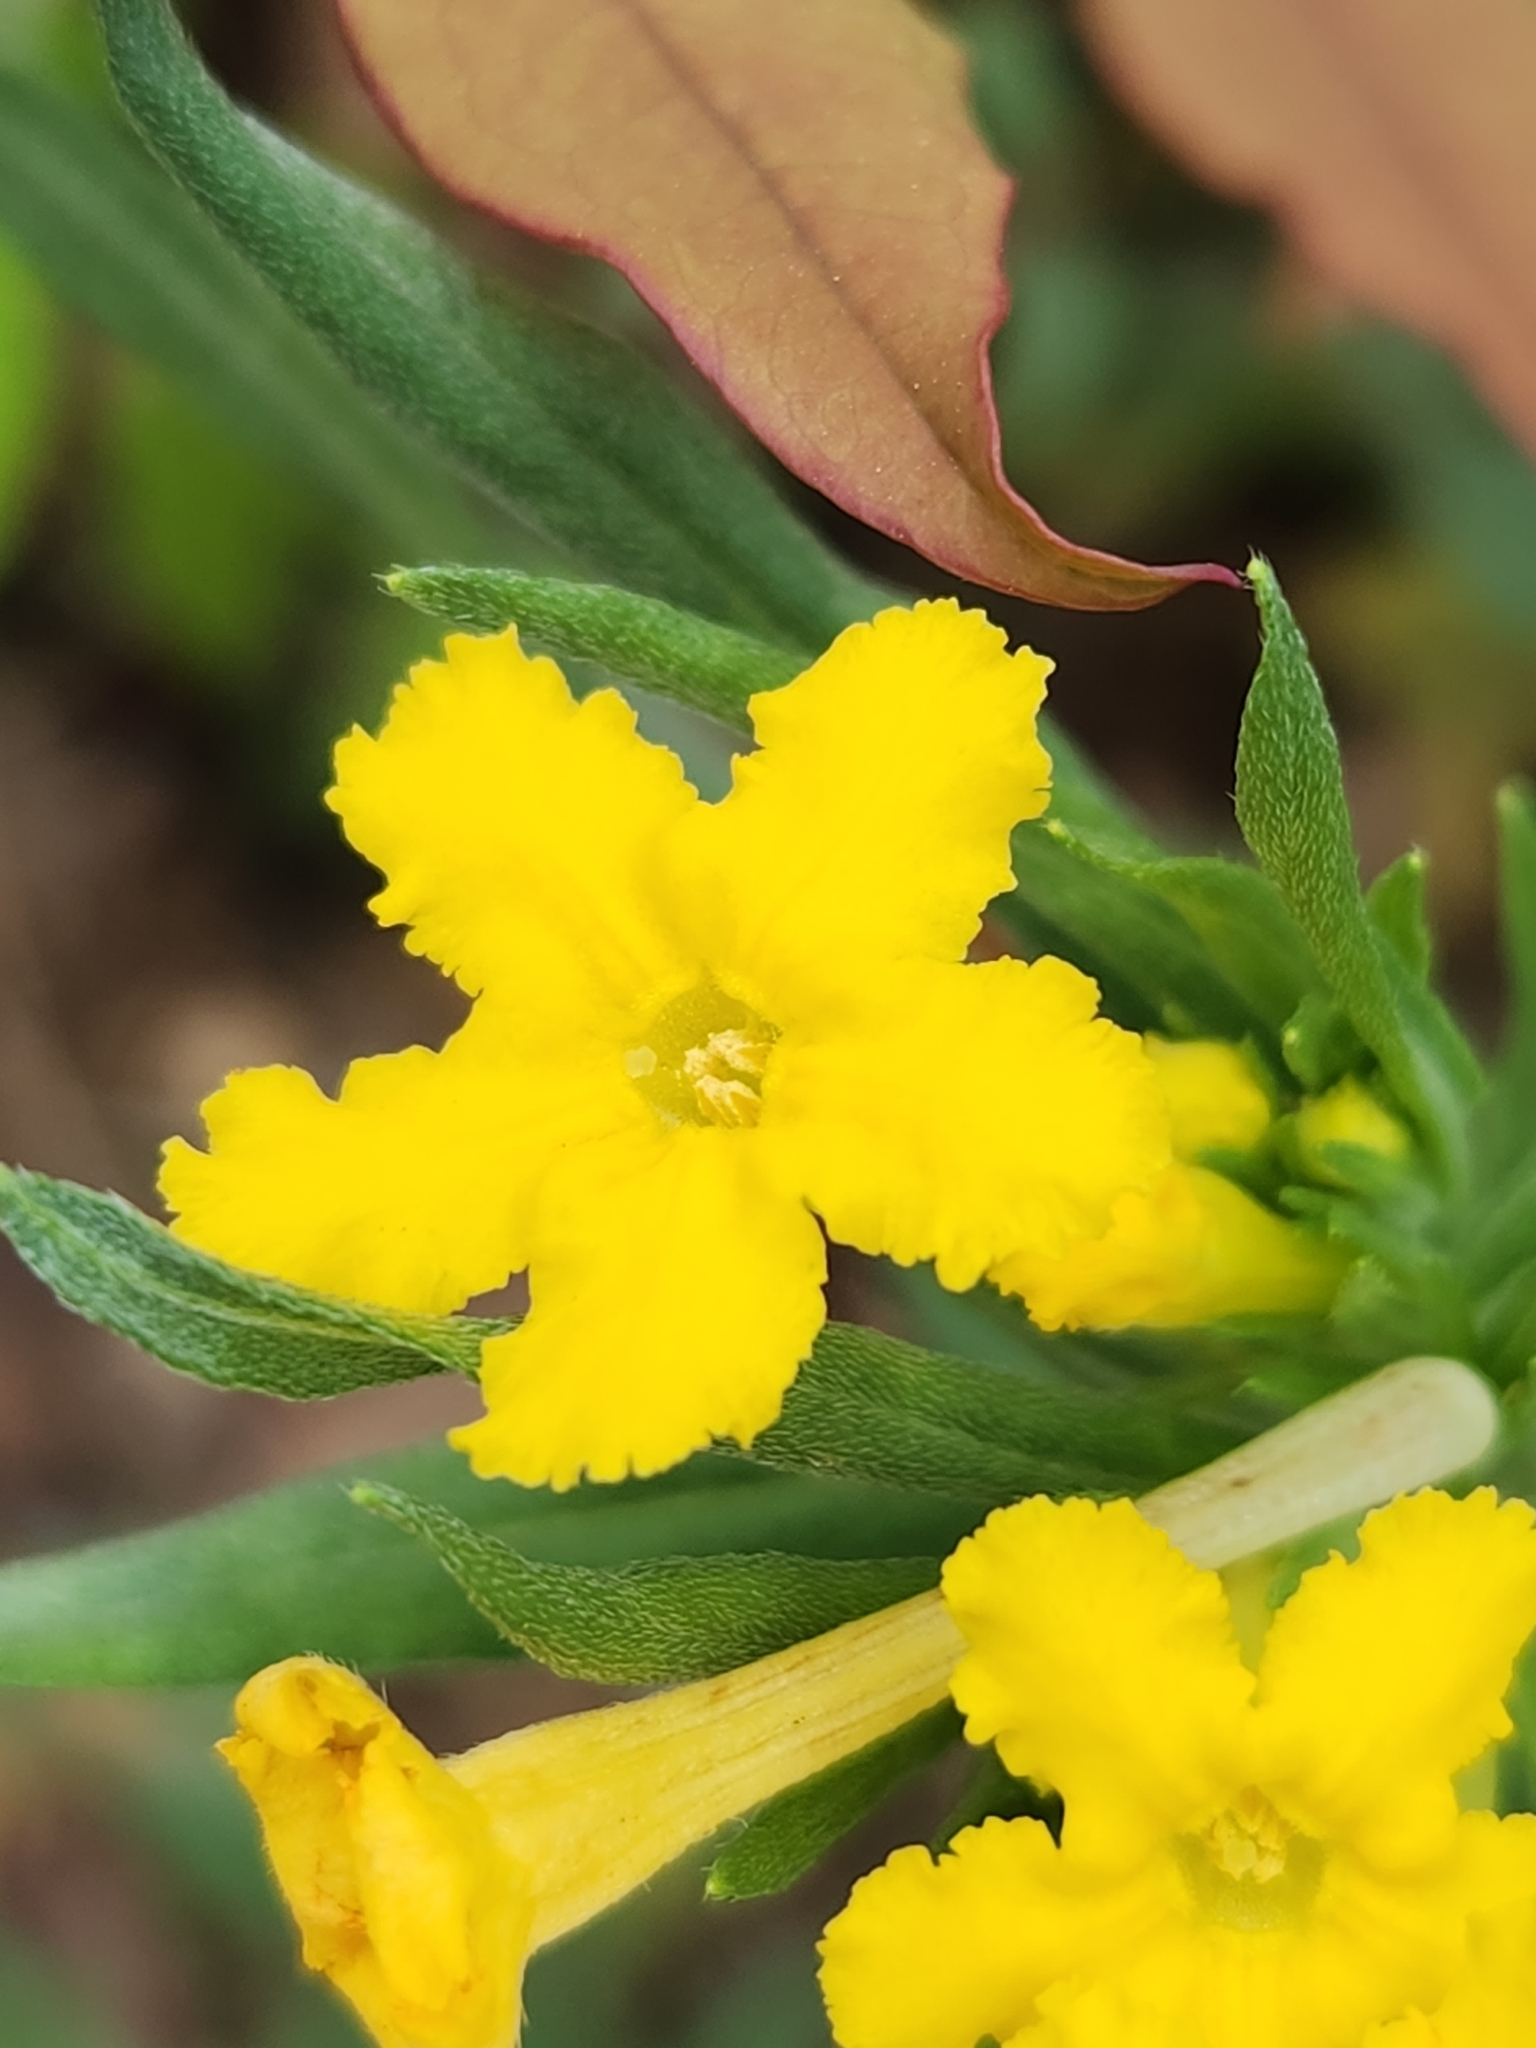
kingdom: Plantae
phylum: Tracheophyta
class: Magnoliopsida
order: Boraginales
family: Boraginaceae
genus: Lithospermum
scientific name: Lithospermum incisum
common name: Fringed gromwell
